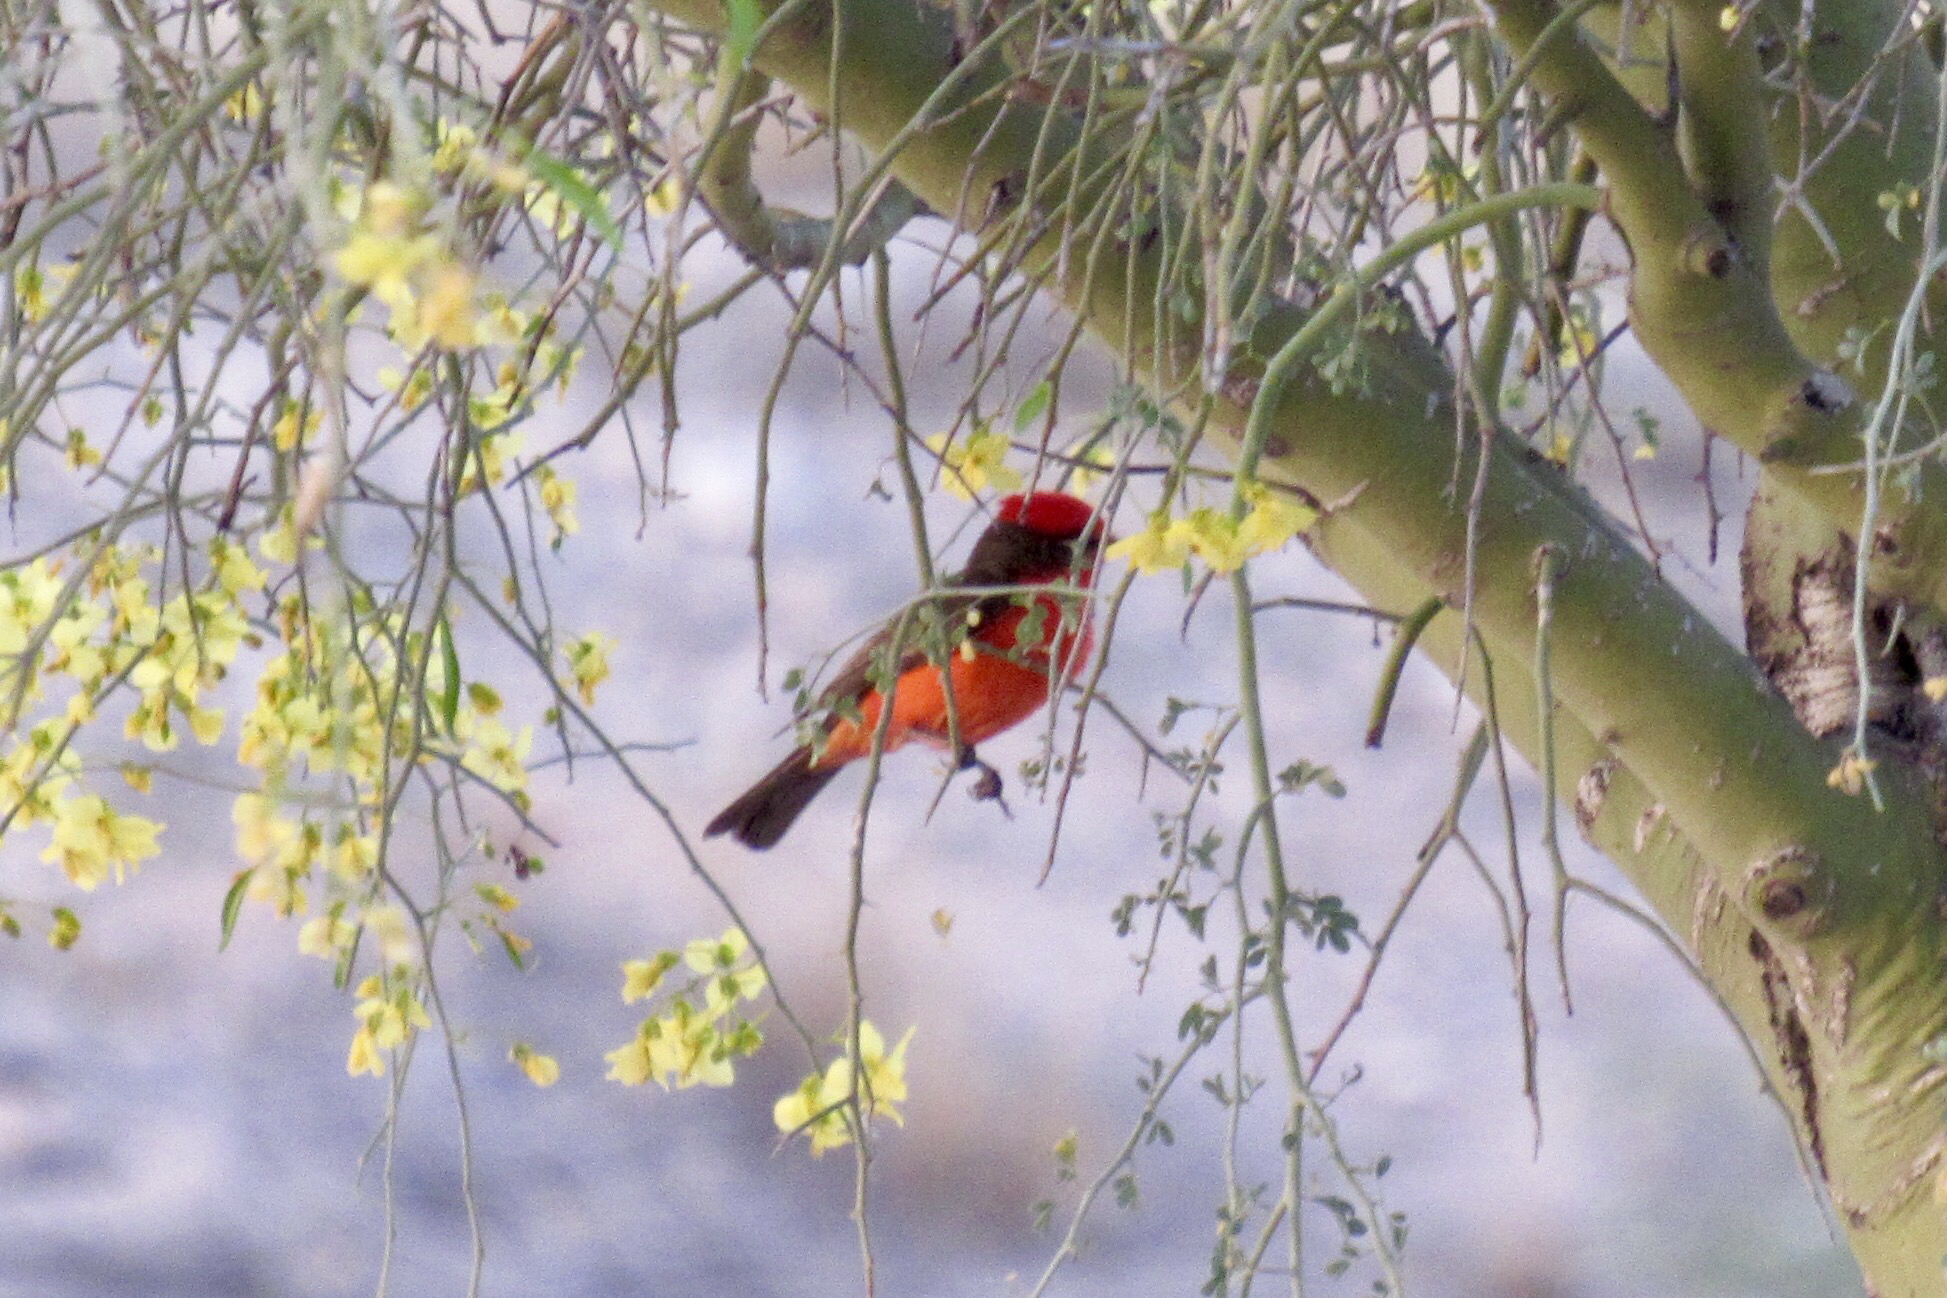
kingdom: Animalia
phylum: Chordata
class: Aves
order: Passeriformes
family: Tyrannidae
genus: Pyrocephalus
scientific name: Pyrocephalus rubinus
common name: Vermilion flycatcher
